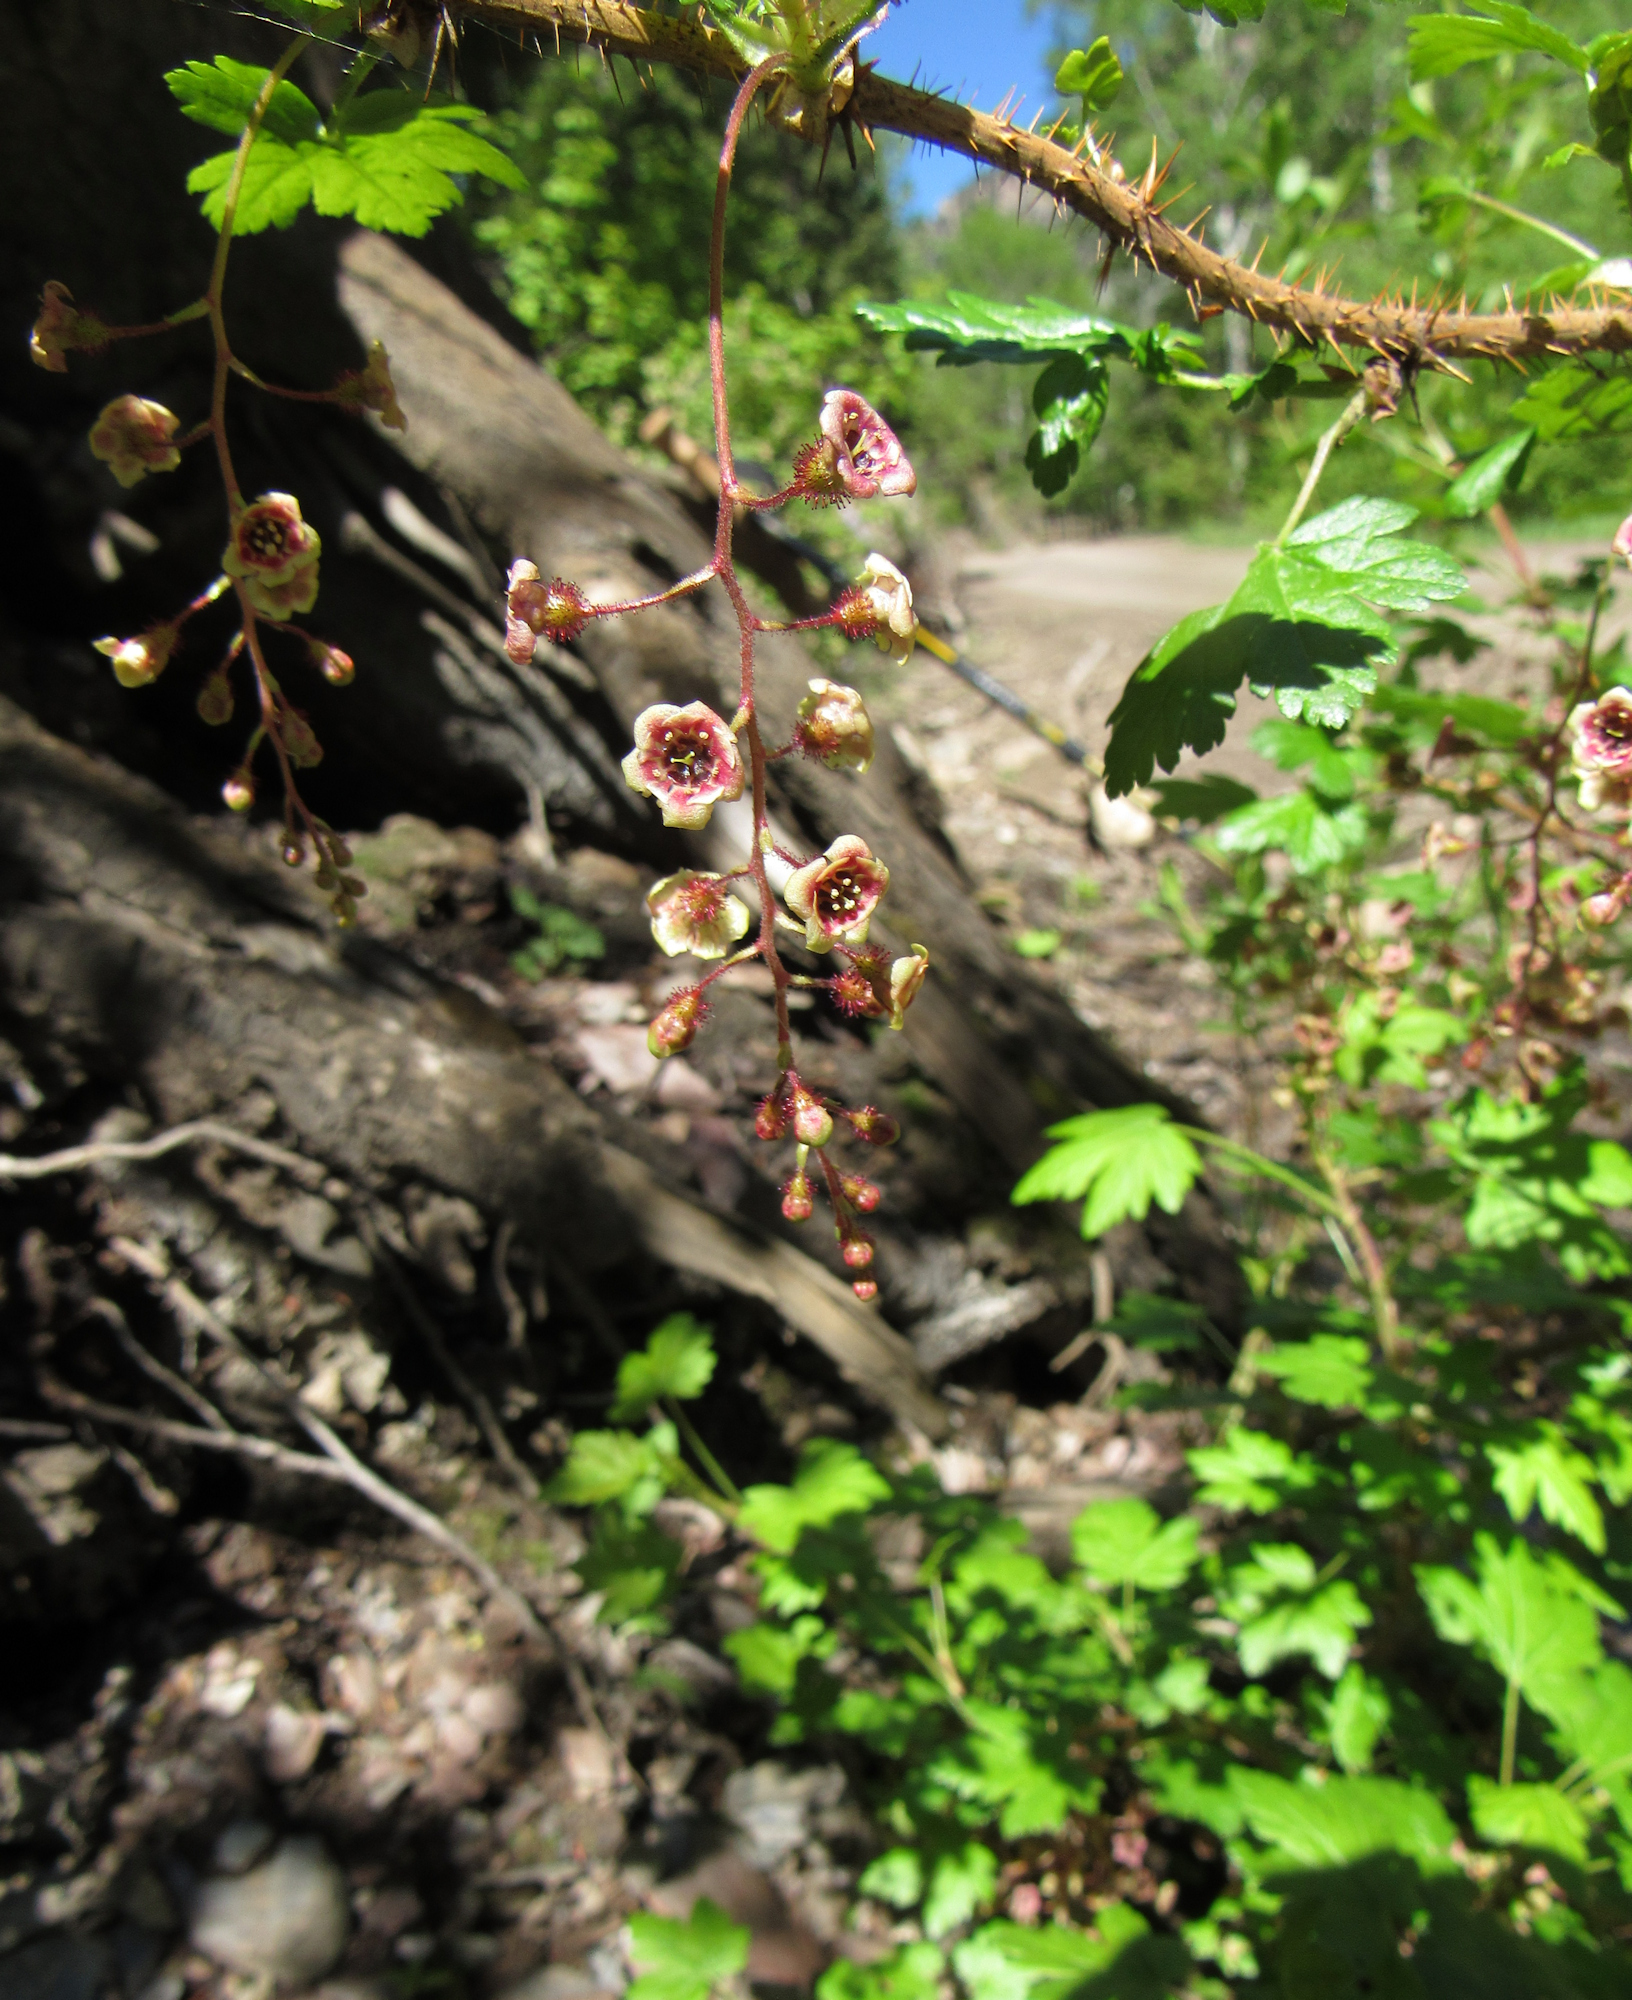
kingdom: Plantae
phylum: Tracheophyta
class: Magnoliopsida
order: Saxifragales
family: Grossulariaceae
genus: Ribes
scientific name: Ribes lacustre
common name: Black gooseberry
